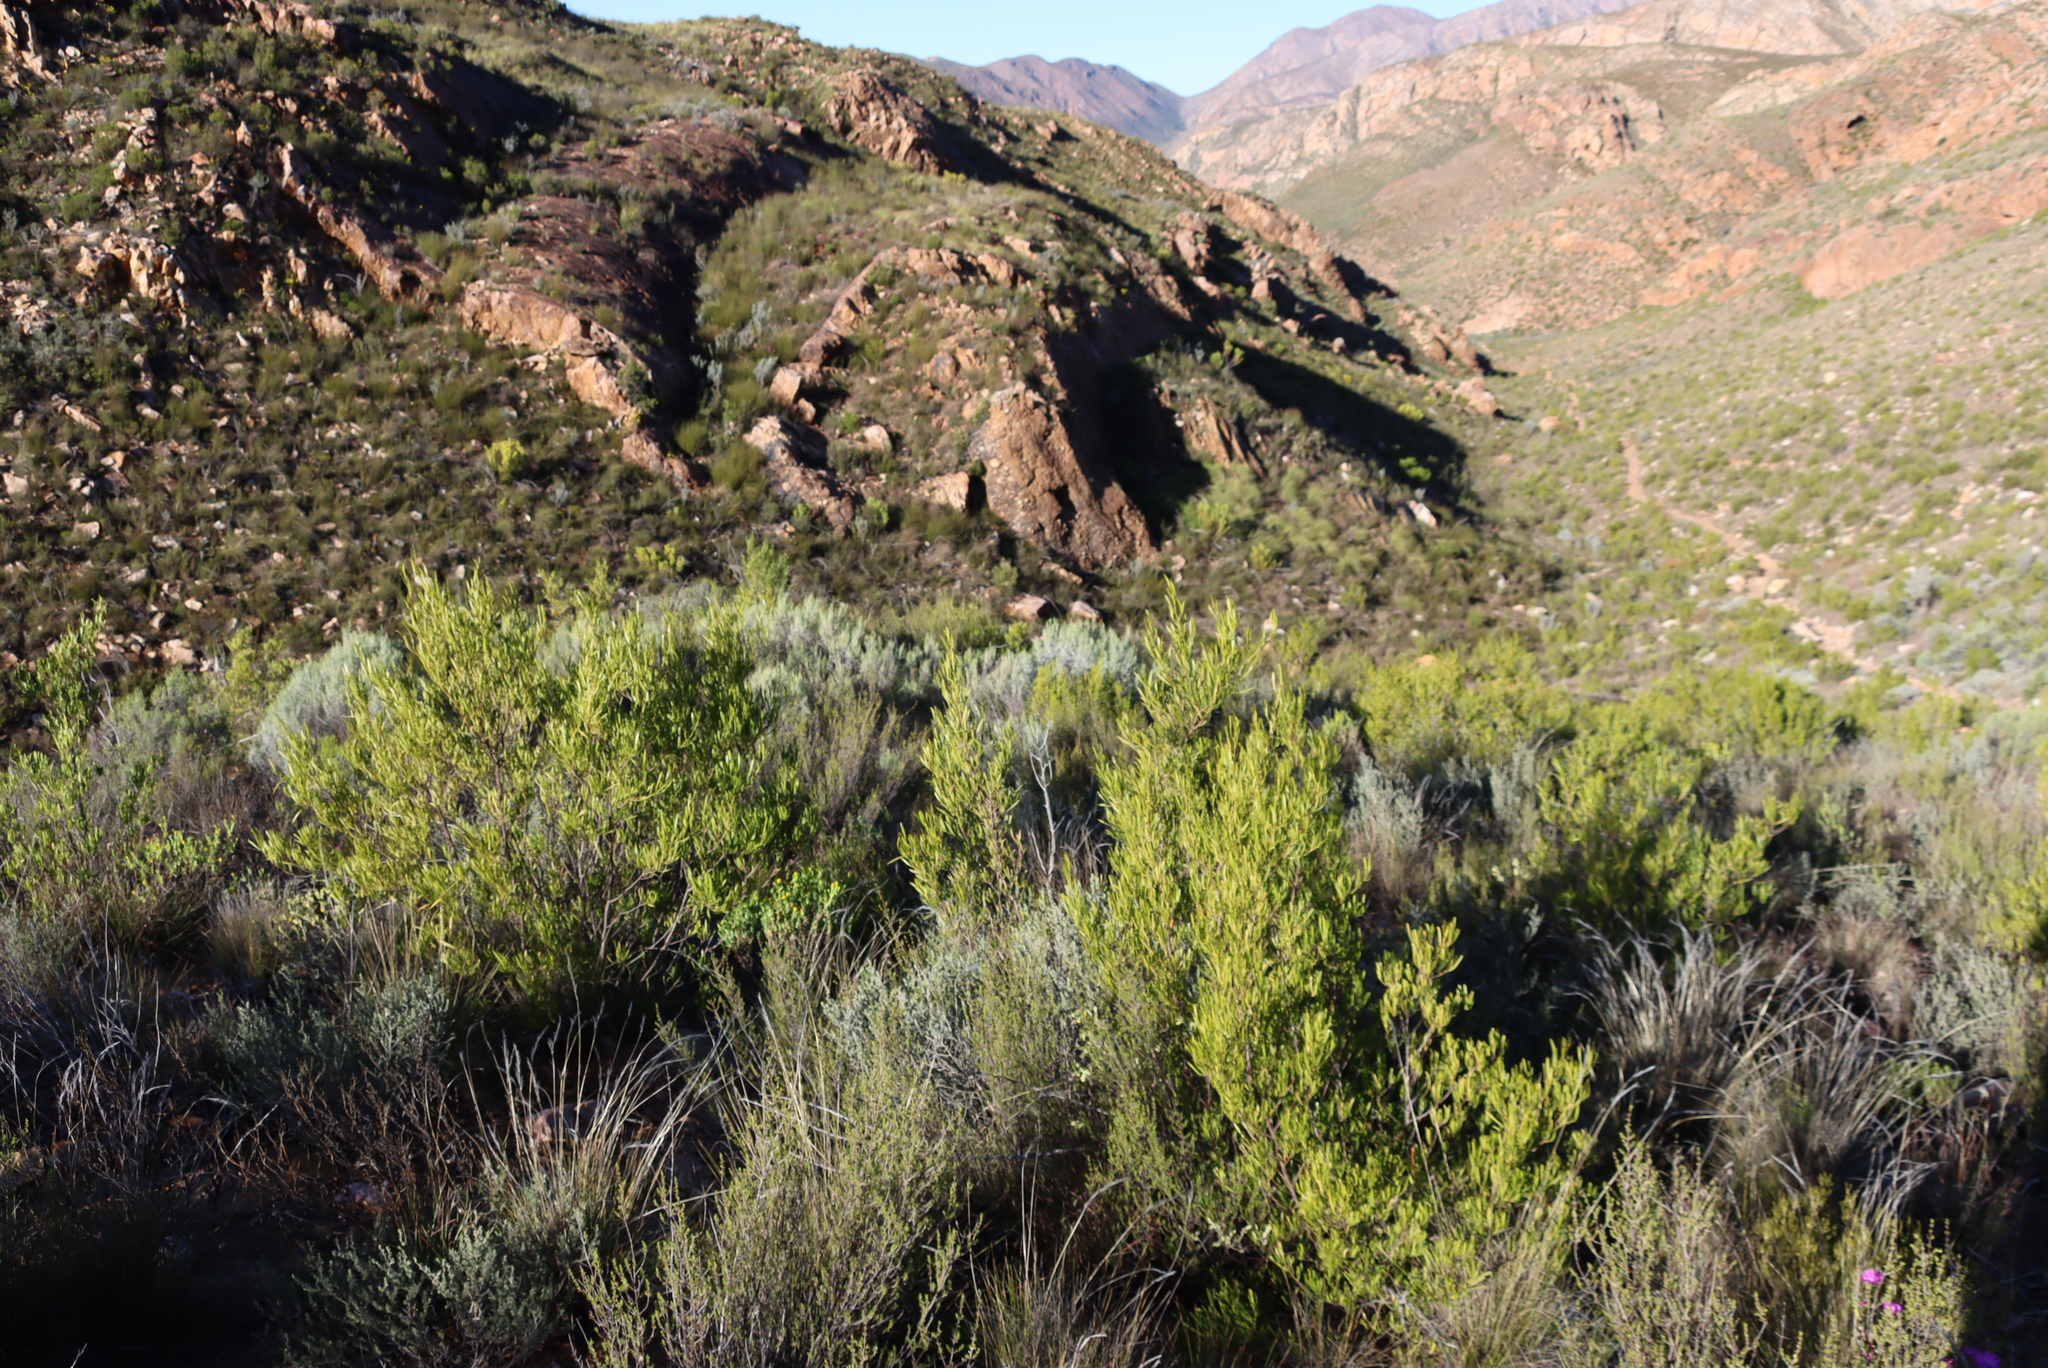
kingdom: Plantae
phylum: Tracheophyta
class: Magnoliopsida
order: Sapindales
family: Sapindaceae
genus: Dodonaea
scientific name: Dodonaea viscosa
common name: Hopbush
